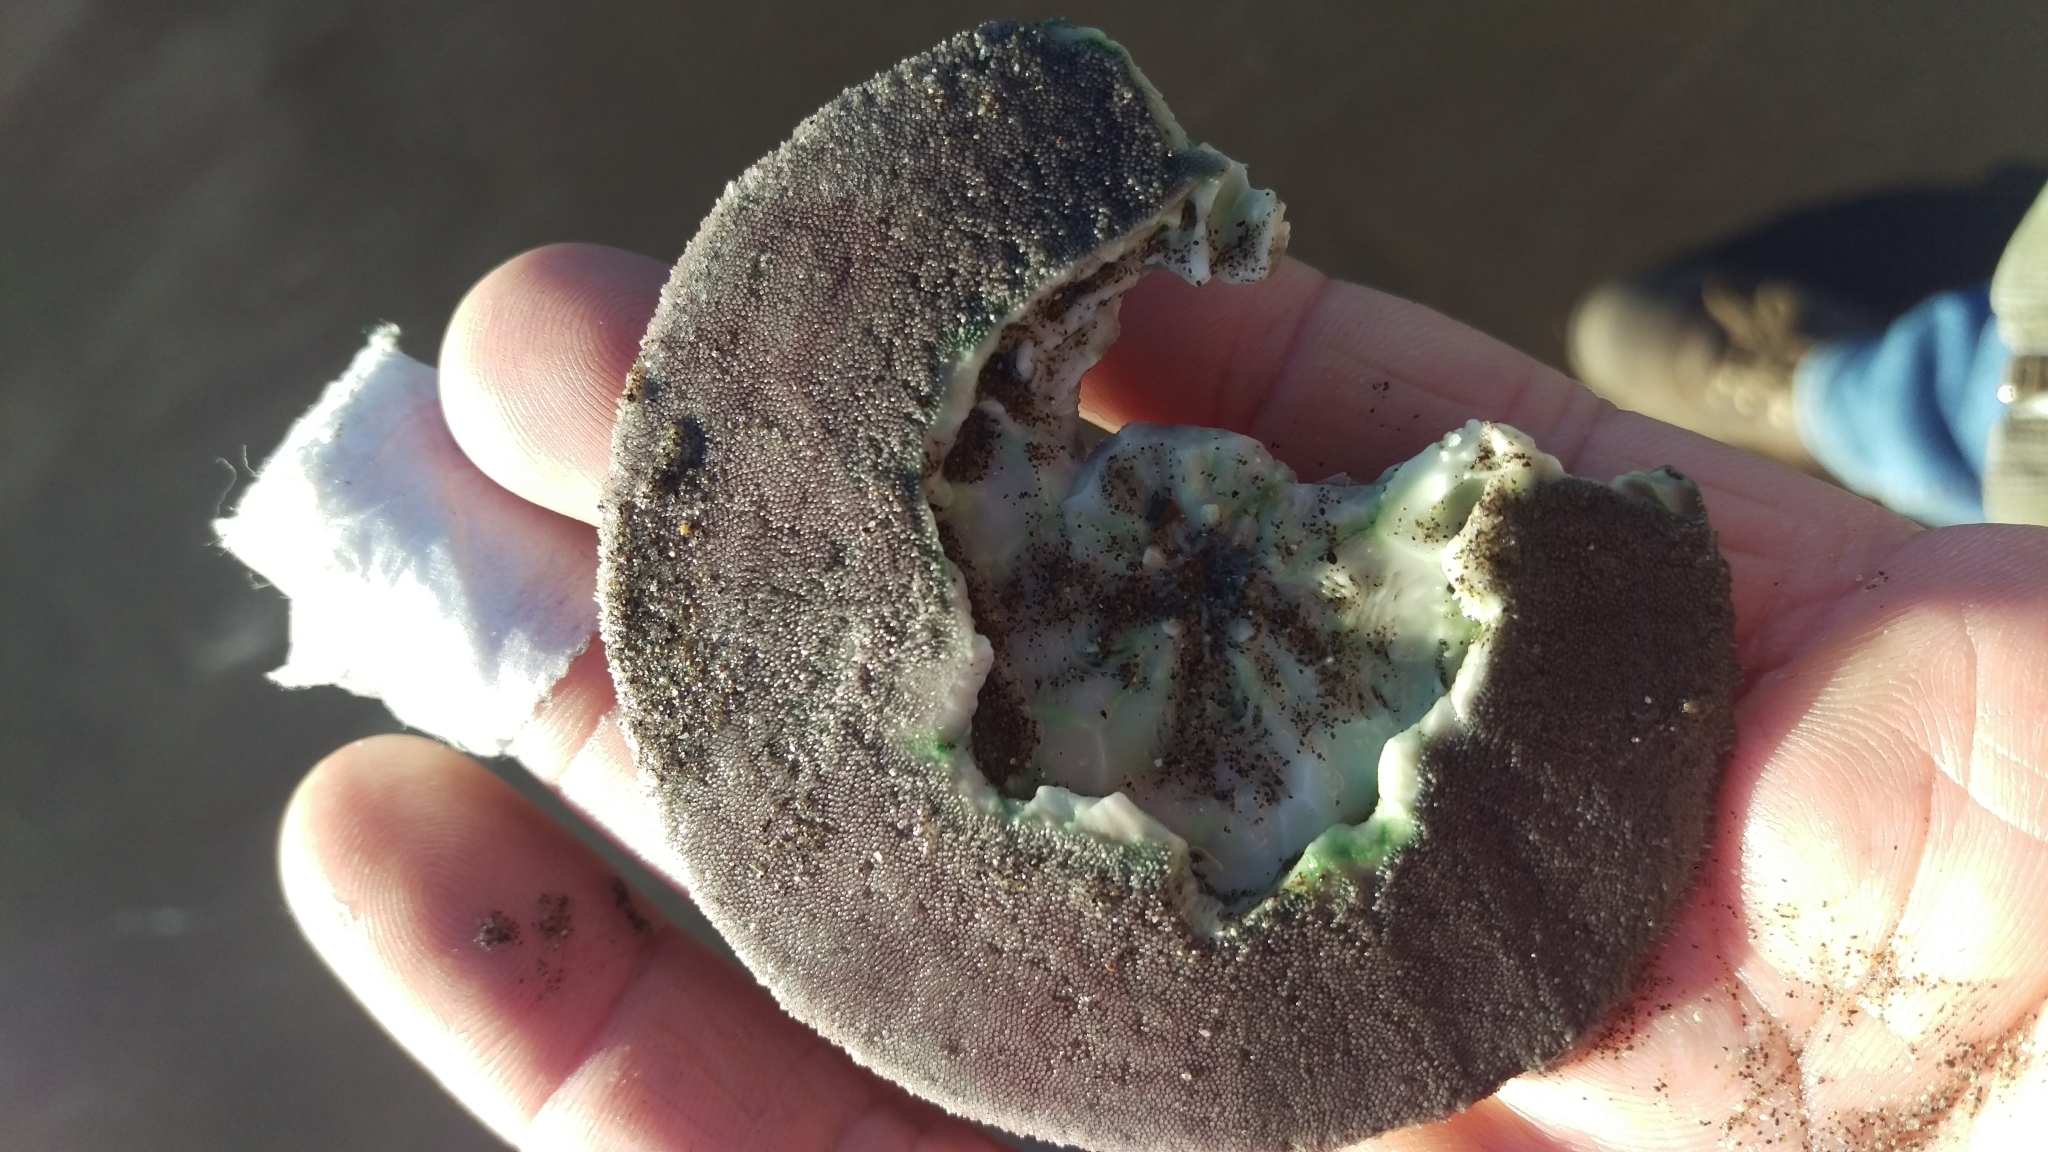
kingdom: Animalia
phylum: Echinodermata
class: Echinoidea
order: Echinolampadacea
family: Dendrasteridae
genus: Dendraster
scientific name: Dendraster excentricus
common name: Eccentric sand dollar sea urchin
